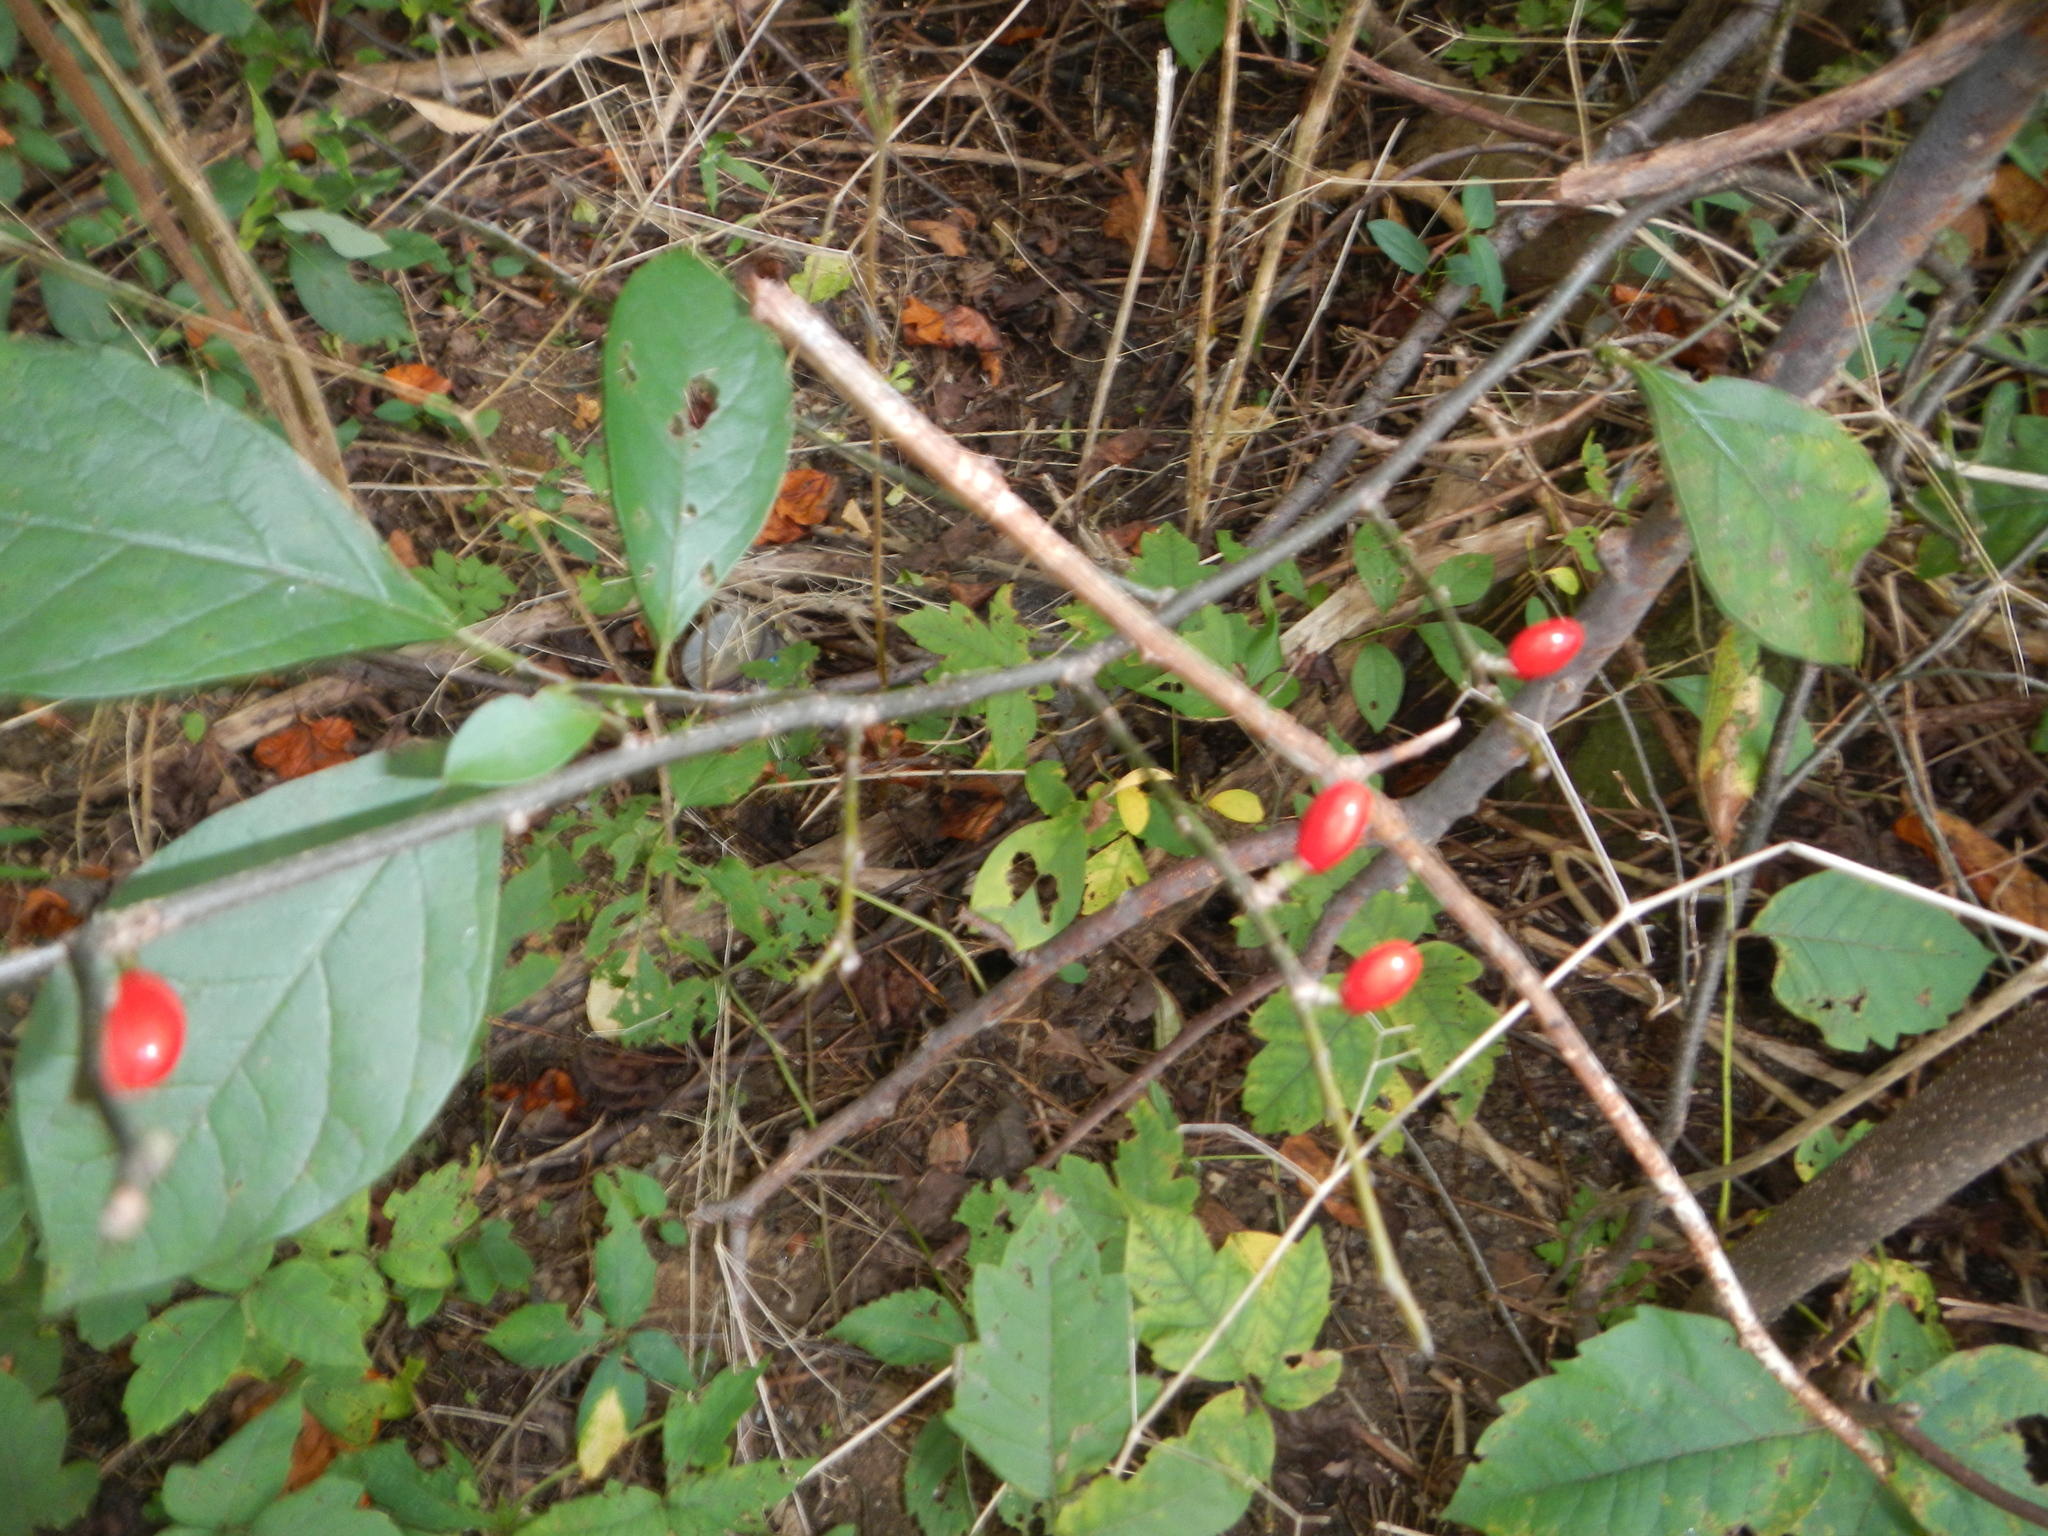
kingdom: Plantae
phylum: Tracheophyta
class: Magnoliopsida
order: Laurales
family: Lauraceae
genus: Lindera
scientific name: Lindera benzoin
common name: Spicebush
